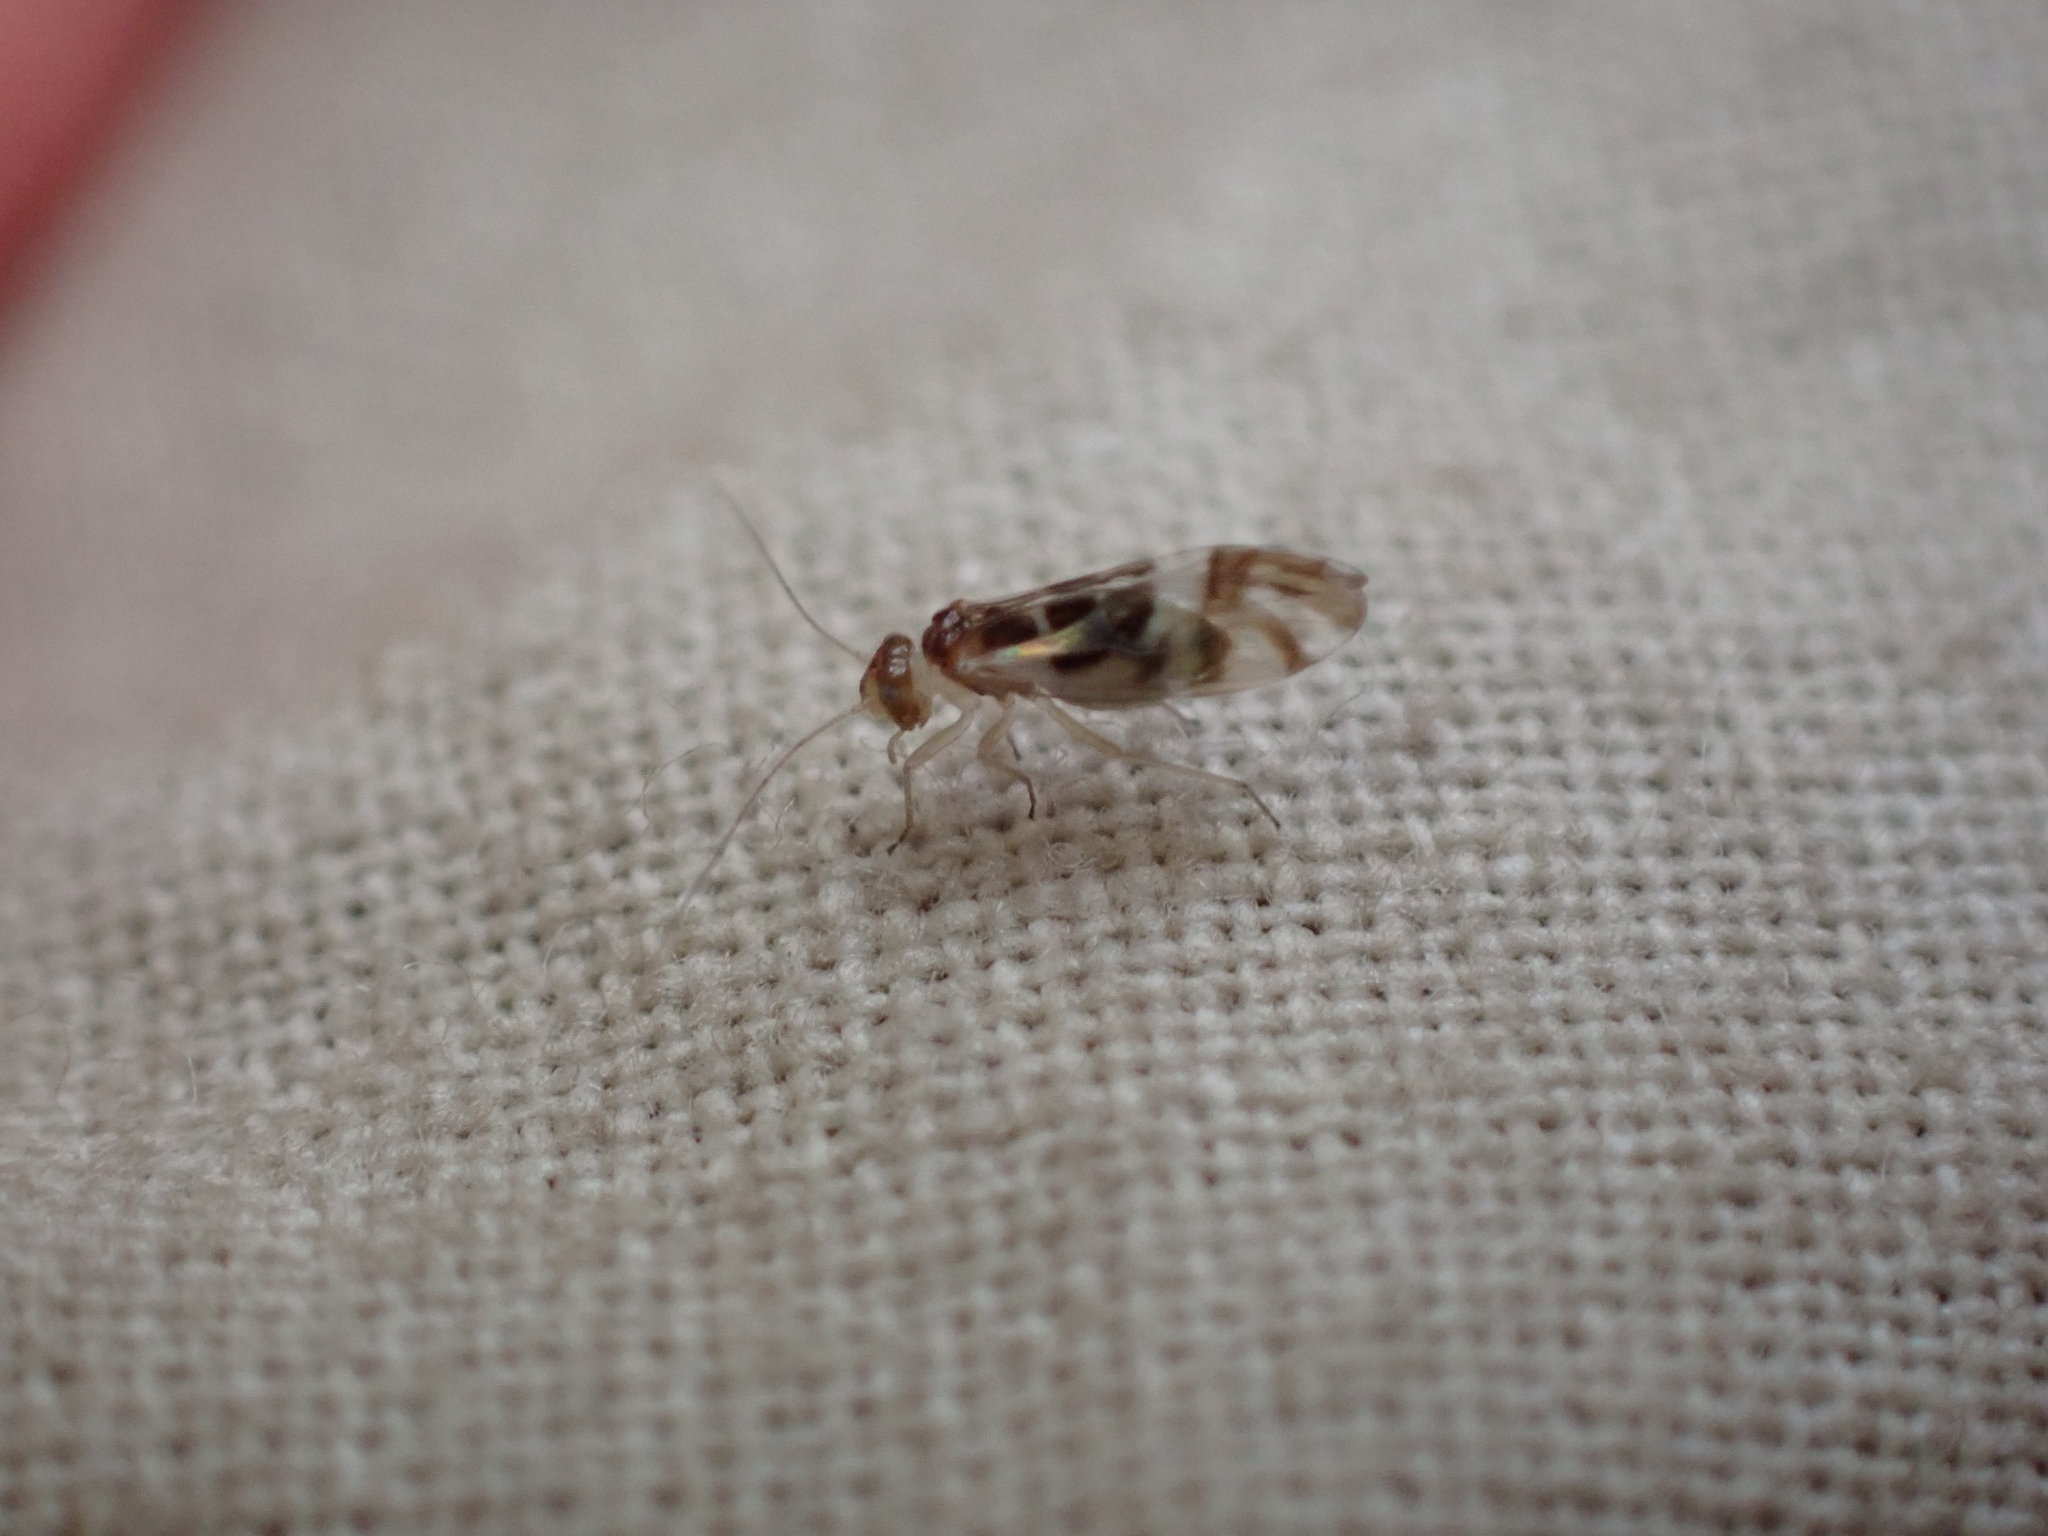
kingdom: Animalia
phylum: Arthropoda
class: Insecta
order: Psocodea
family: Stenopsocidae
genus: Graphopsocus
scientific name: Graphopsocus cruciatus
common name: Lizard bark louse
